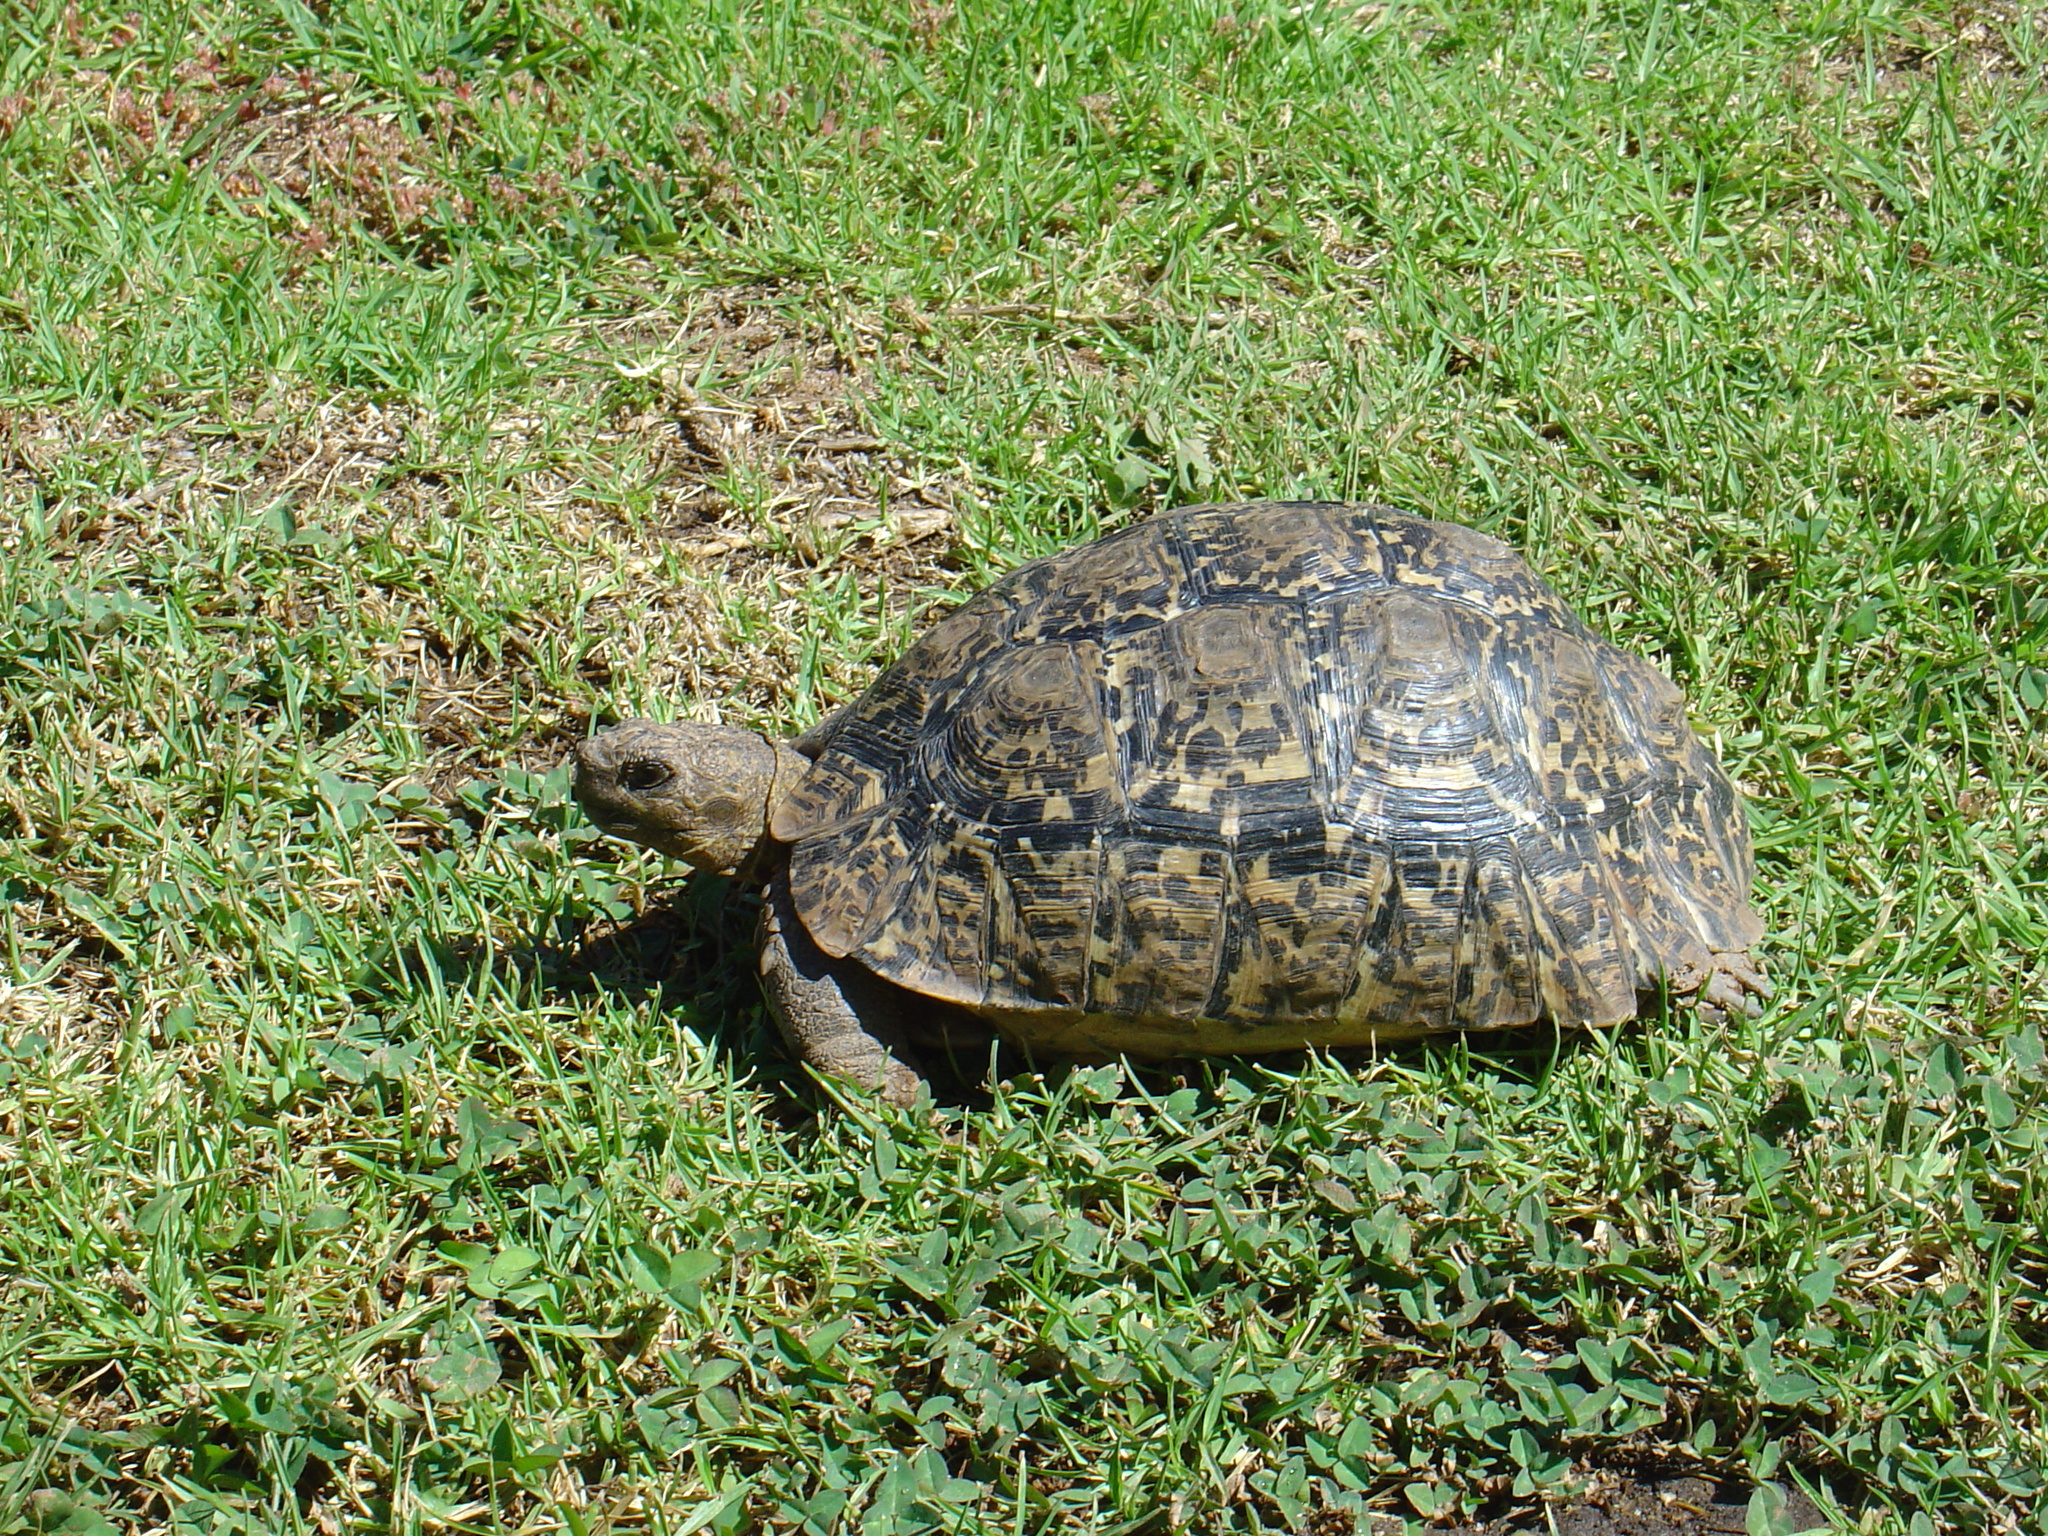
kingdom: Animalia
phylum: Chordata
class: Testudines
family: Testudinidae
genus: Stigmochelys
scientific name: Stigmochelys pardalis
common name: Leopard tortoise
